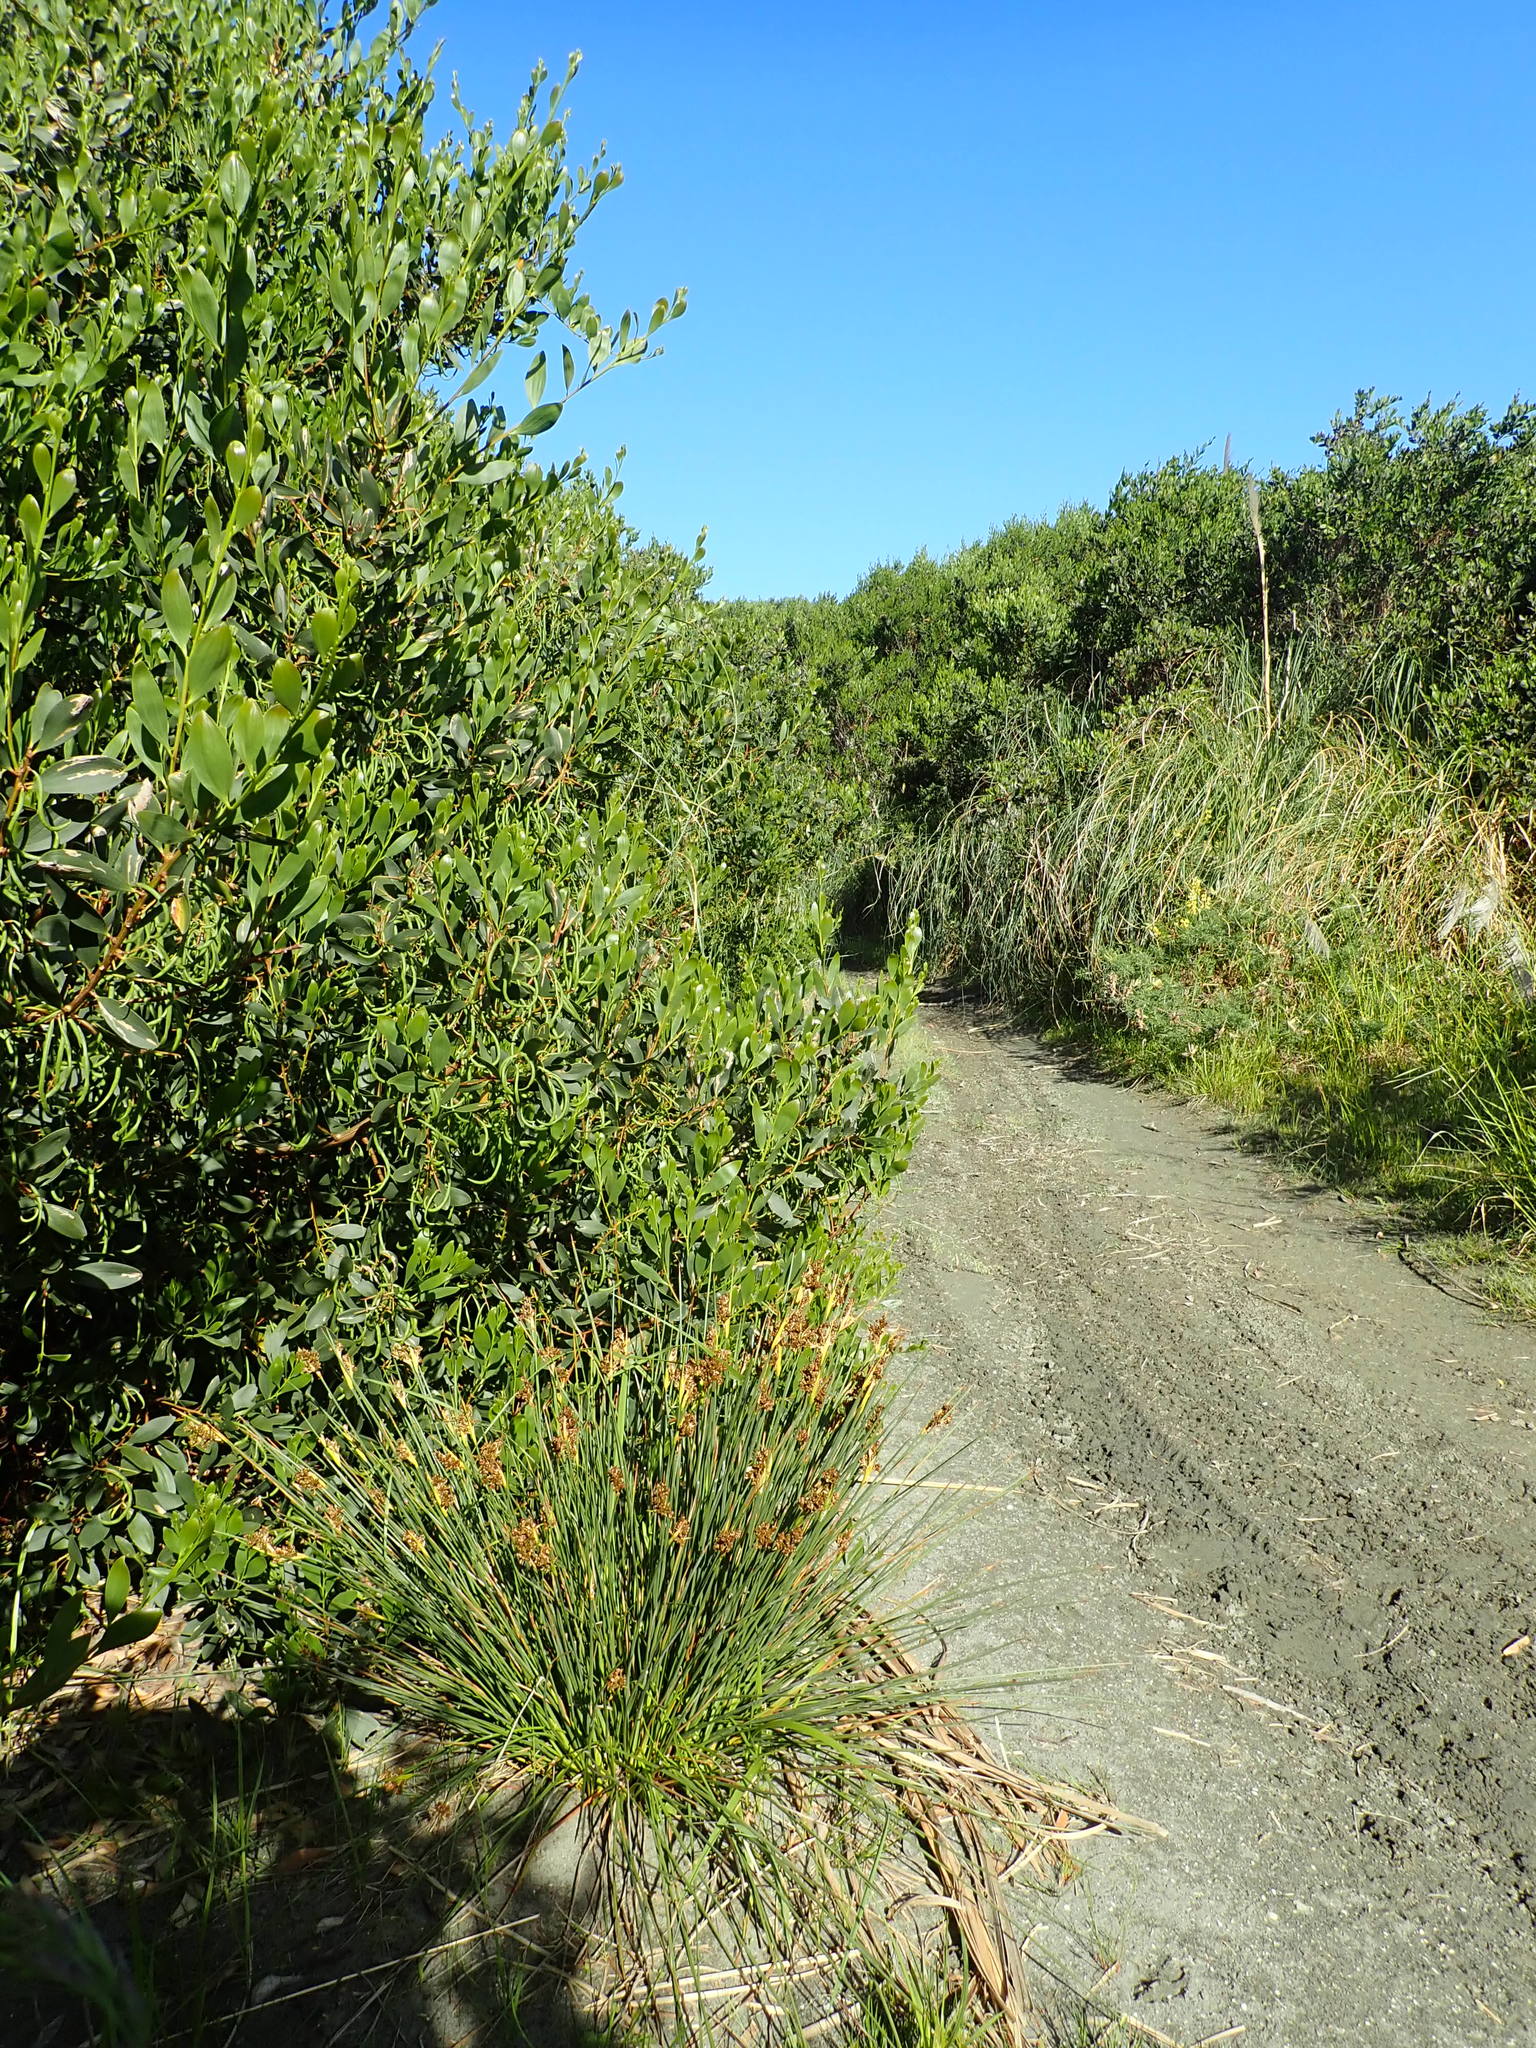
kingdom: Plantae
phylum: Tracheophyta
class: Liliopsida
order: Poales
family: Juncaceae
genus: Juncus
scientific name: Juncus acutus
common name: Sharp rush
